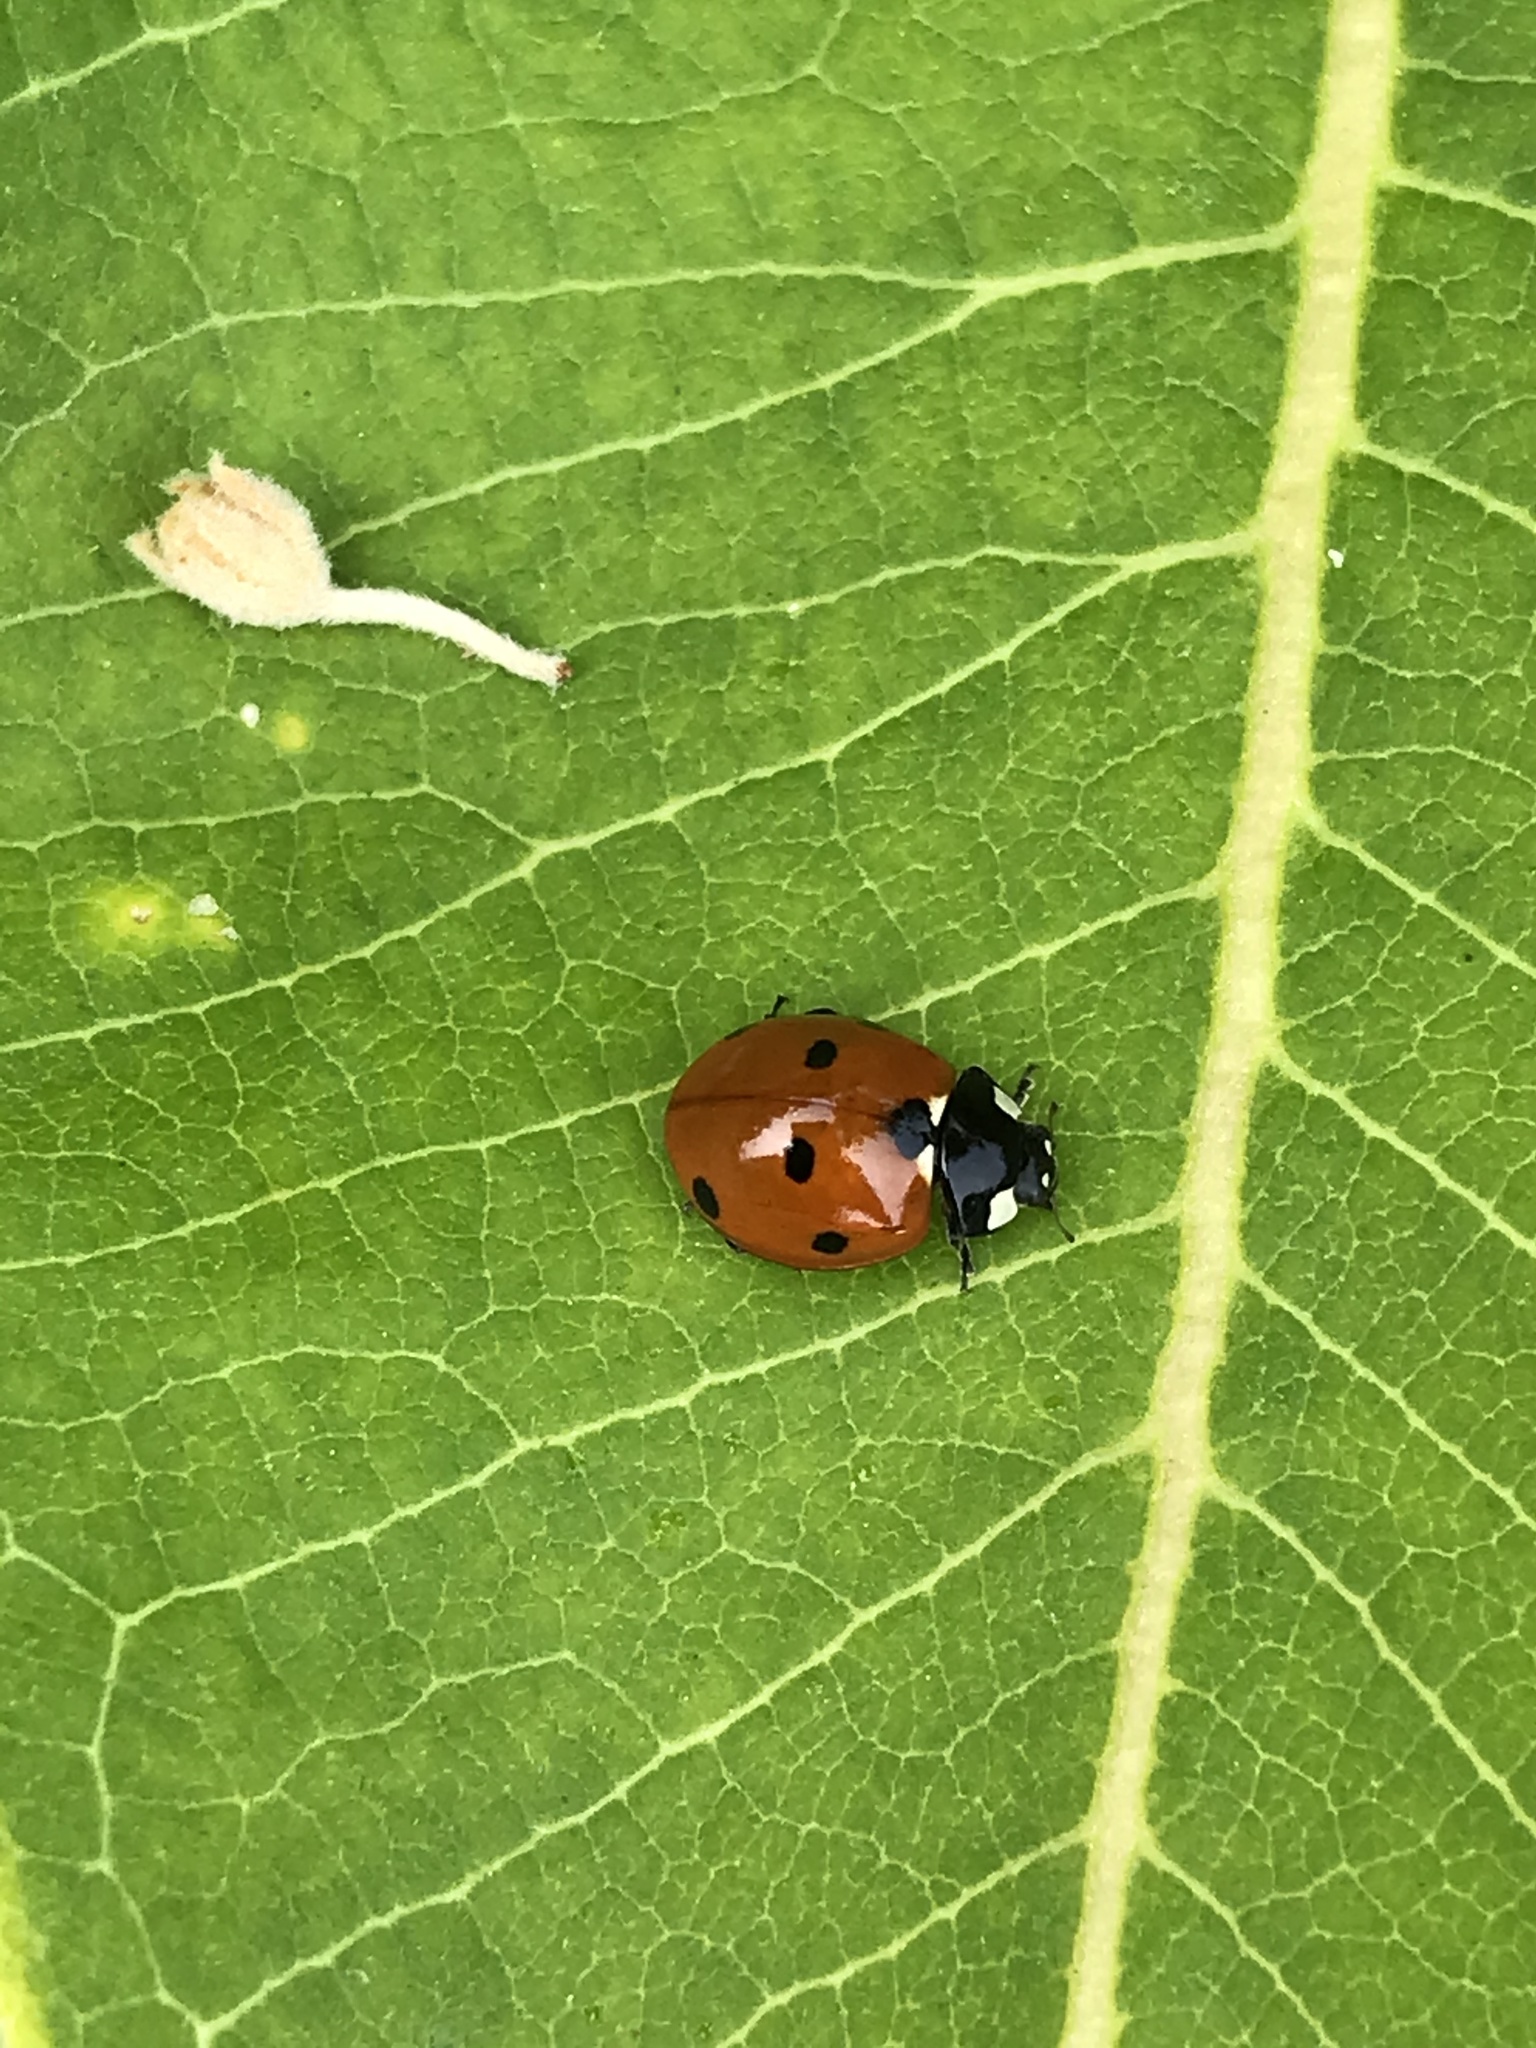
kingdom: Animalia
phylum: Arthropoda
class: Insecta
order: Coleoptera
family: Coccinellidae
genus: Coccinella
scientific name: Coccinella septempunctata
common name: Sevenspotted lady beetle
